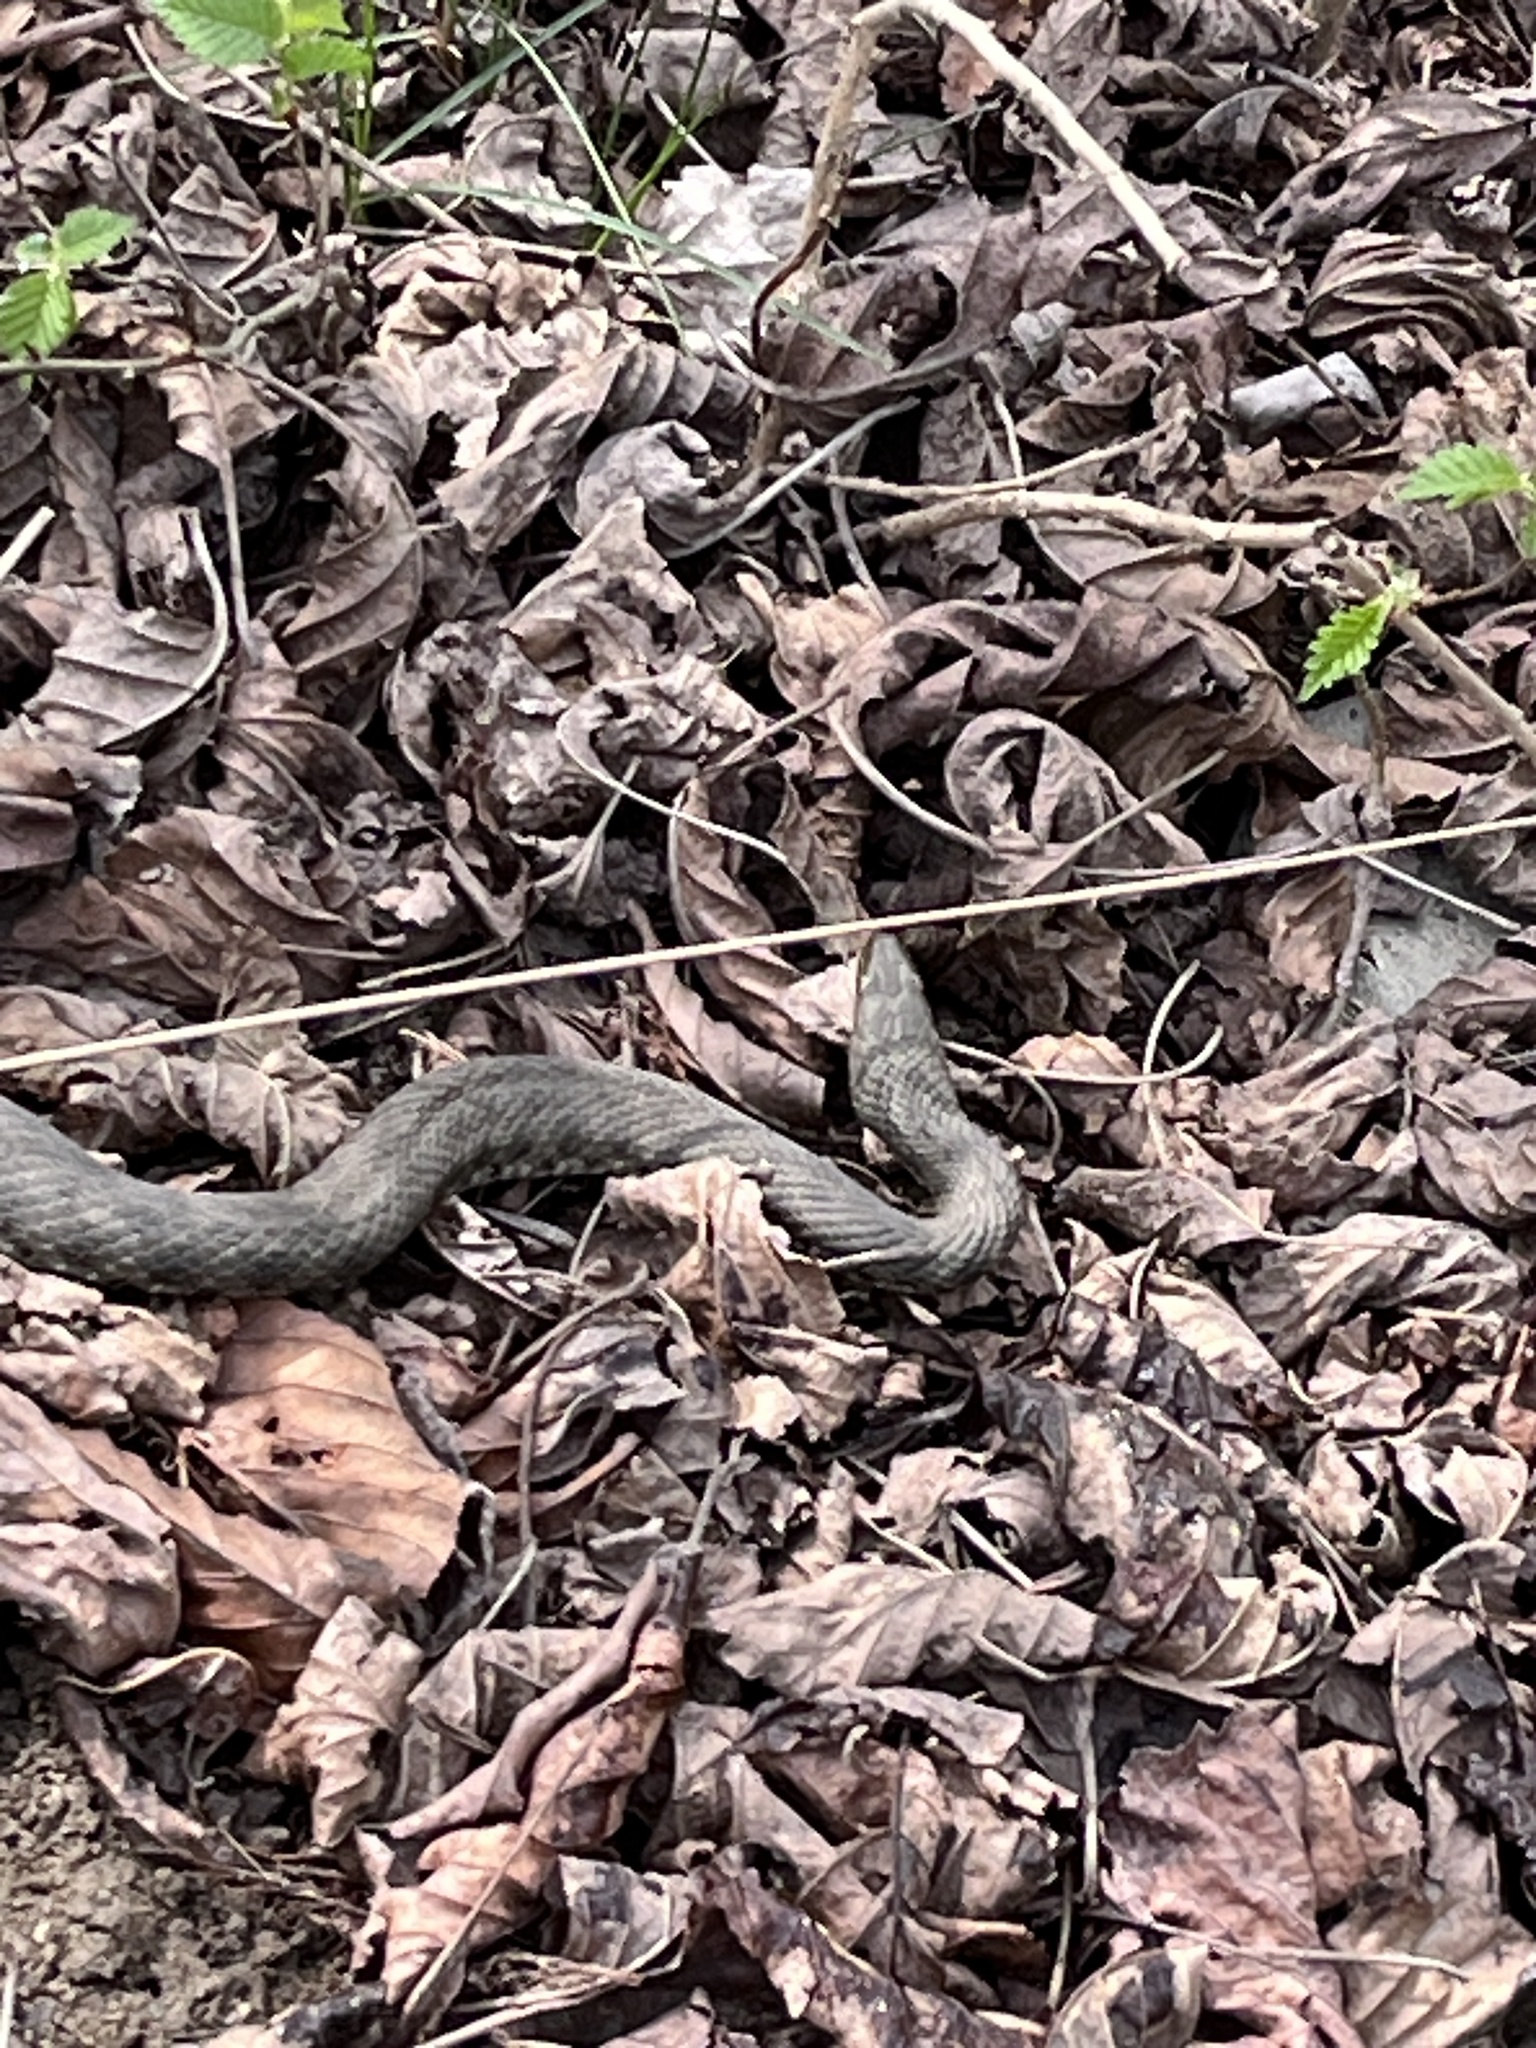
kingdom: Animalia
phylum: Chordata
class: Squamata
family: Colubridae
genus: Natrix
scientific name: Natrix tessellata
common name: Dice snake
